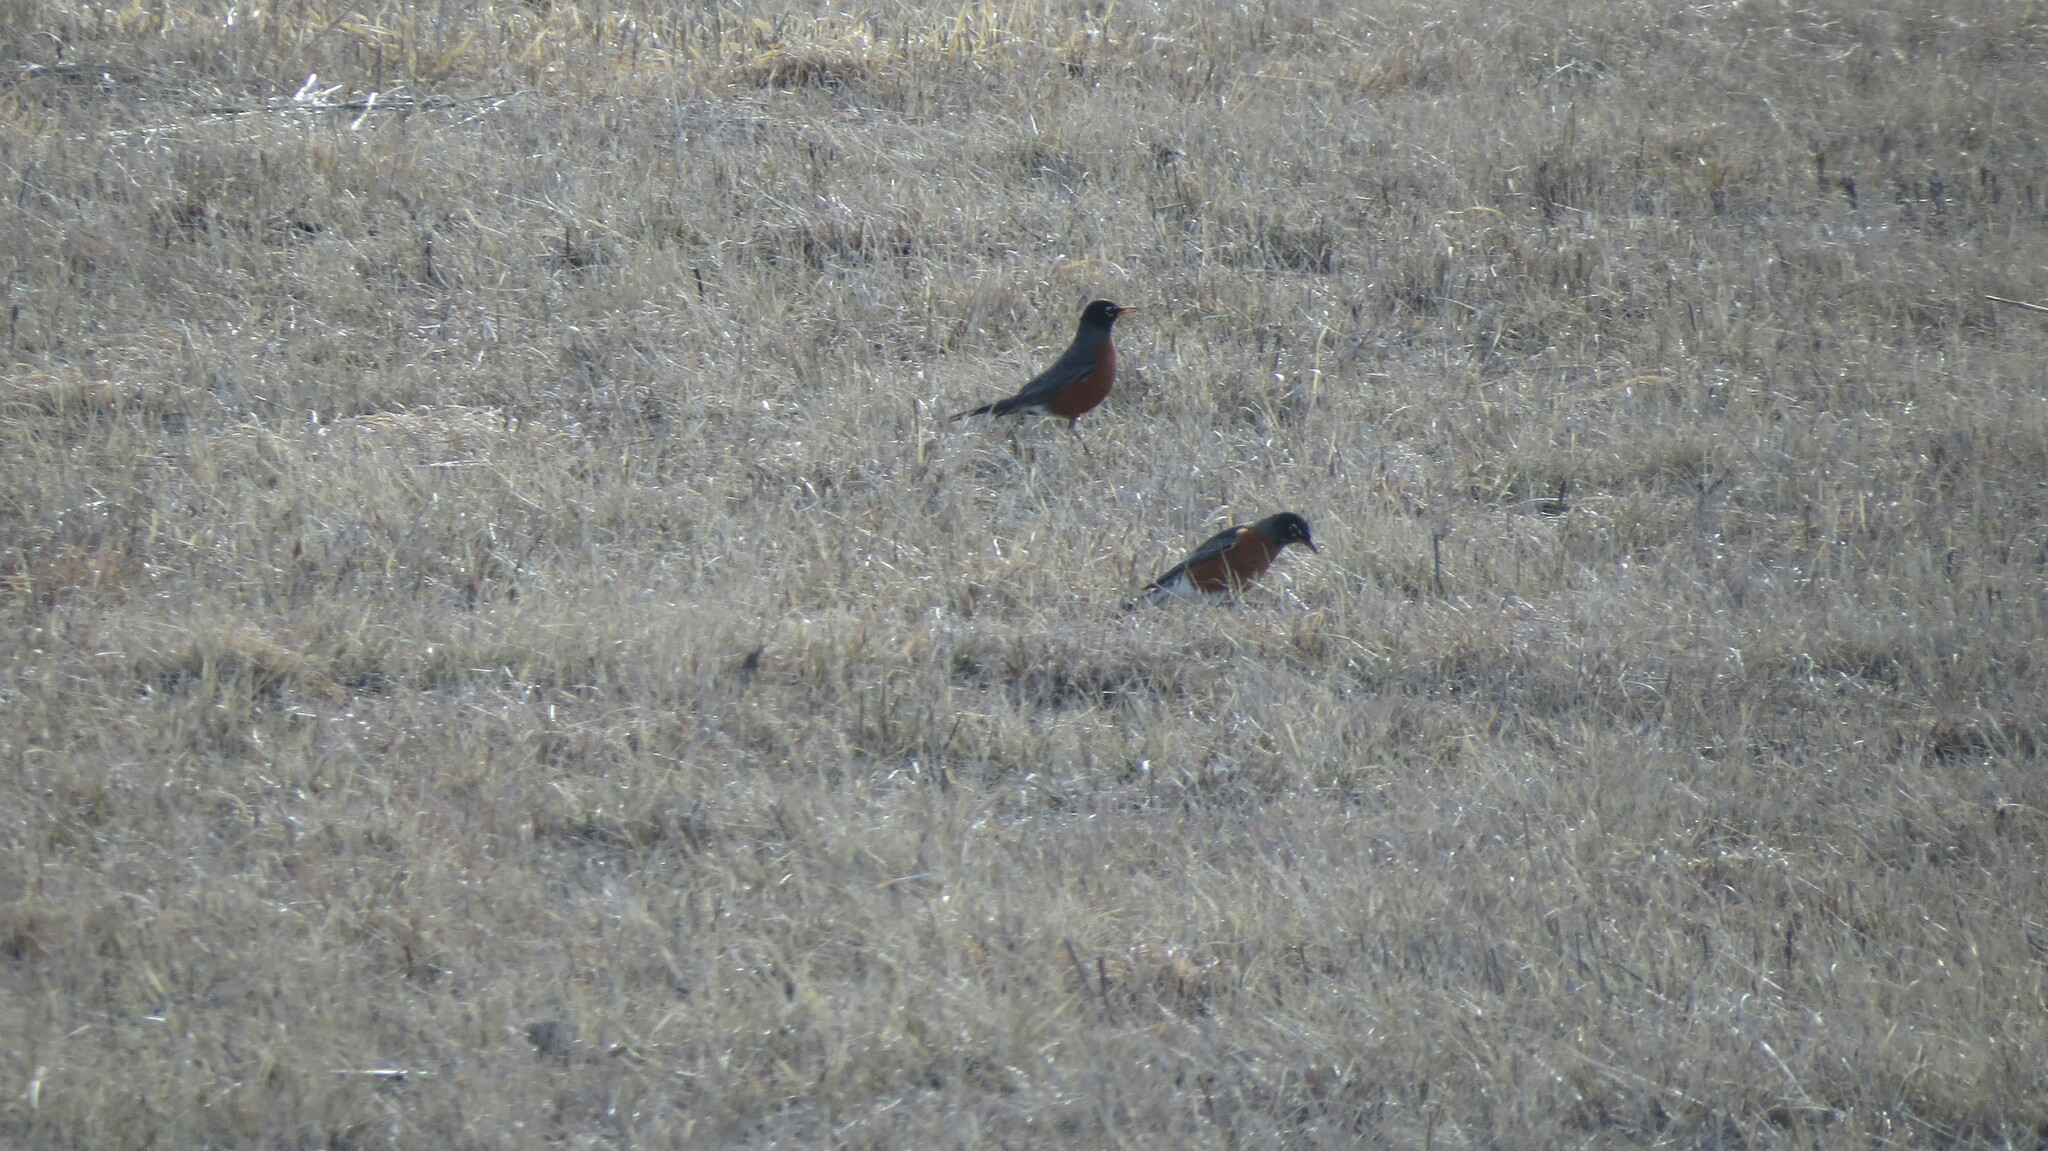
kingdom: Animalia
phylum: Chordata
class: Aves
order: Passeriformes
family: Turdidae
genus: Turdus
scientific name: Turdus migratorius
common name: American robin
